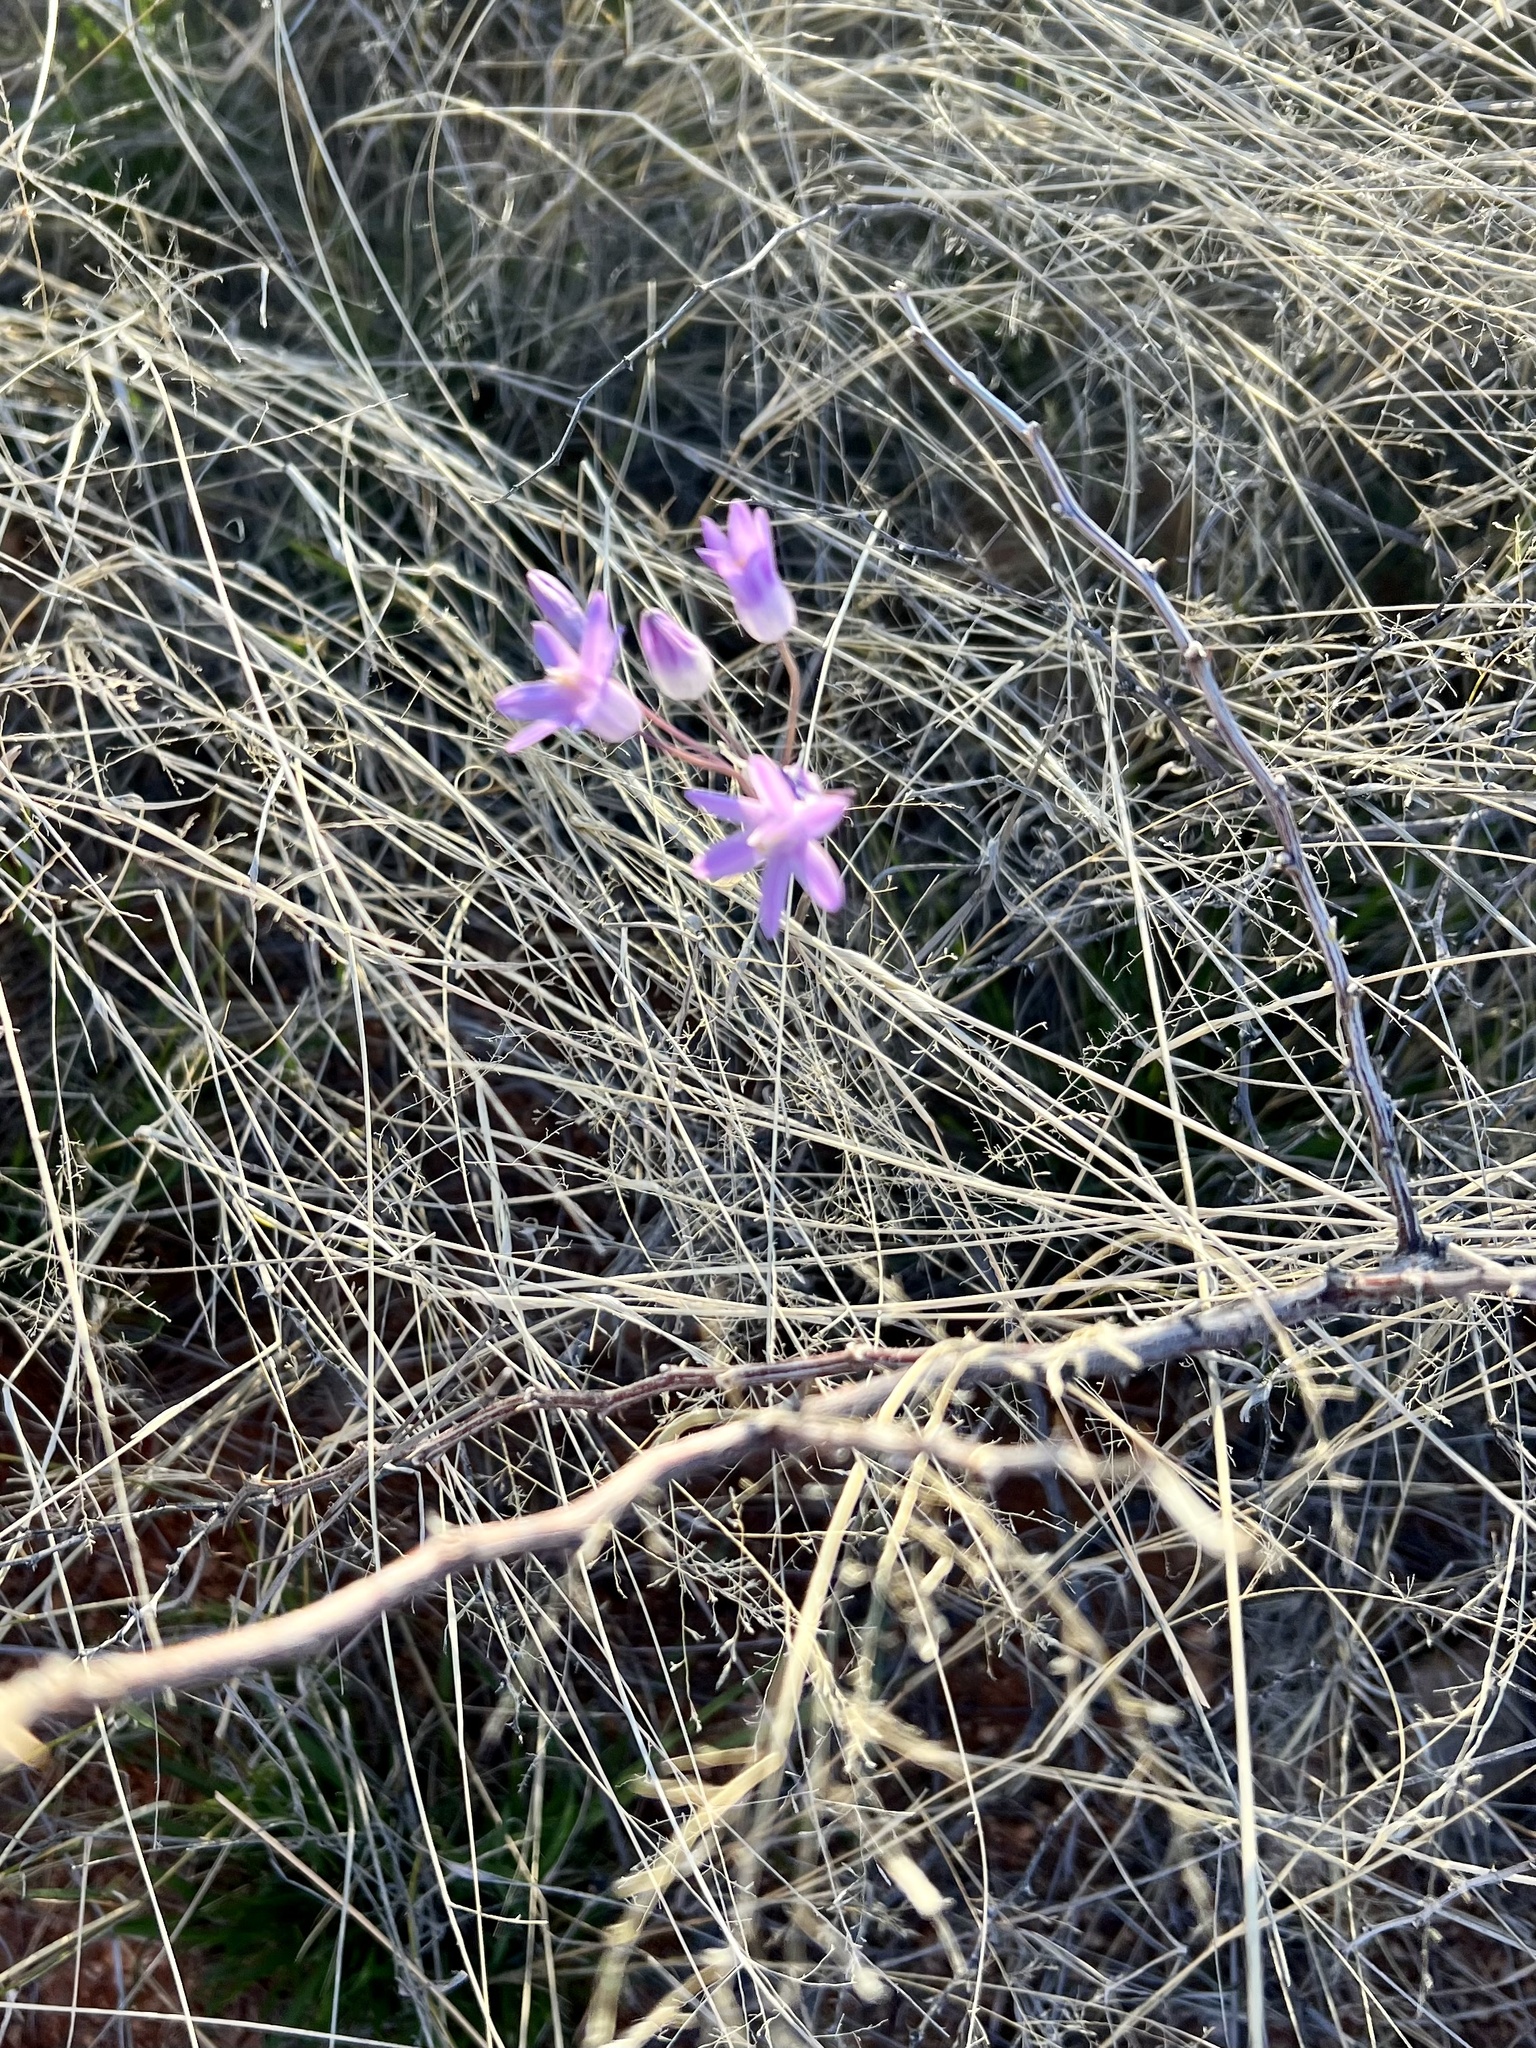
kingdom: Plantae
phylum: Tracheophyta
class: Liliopsida
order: Asparagales
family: Asparagaceae
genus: Dipterostemon
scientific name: Dipterostemon capitatus
